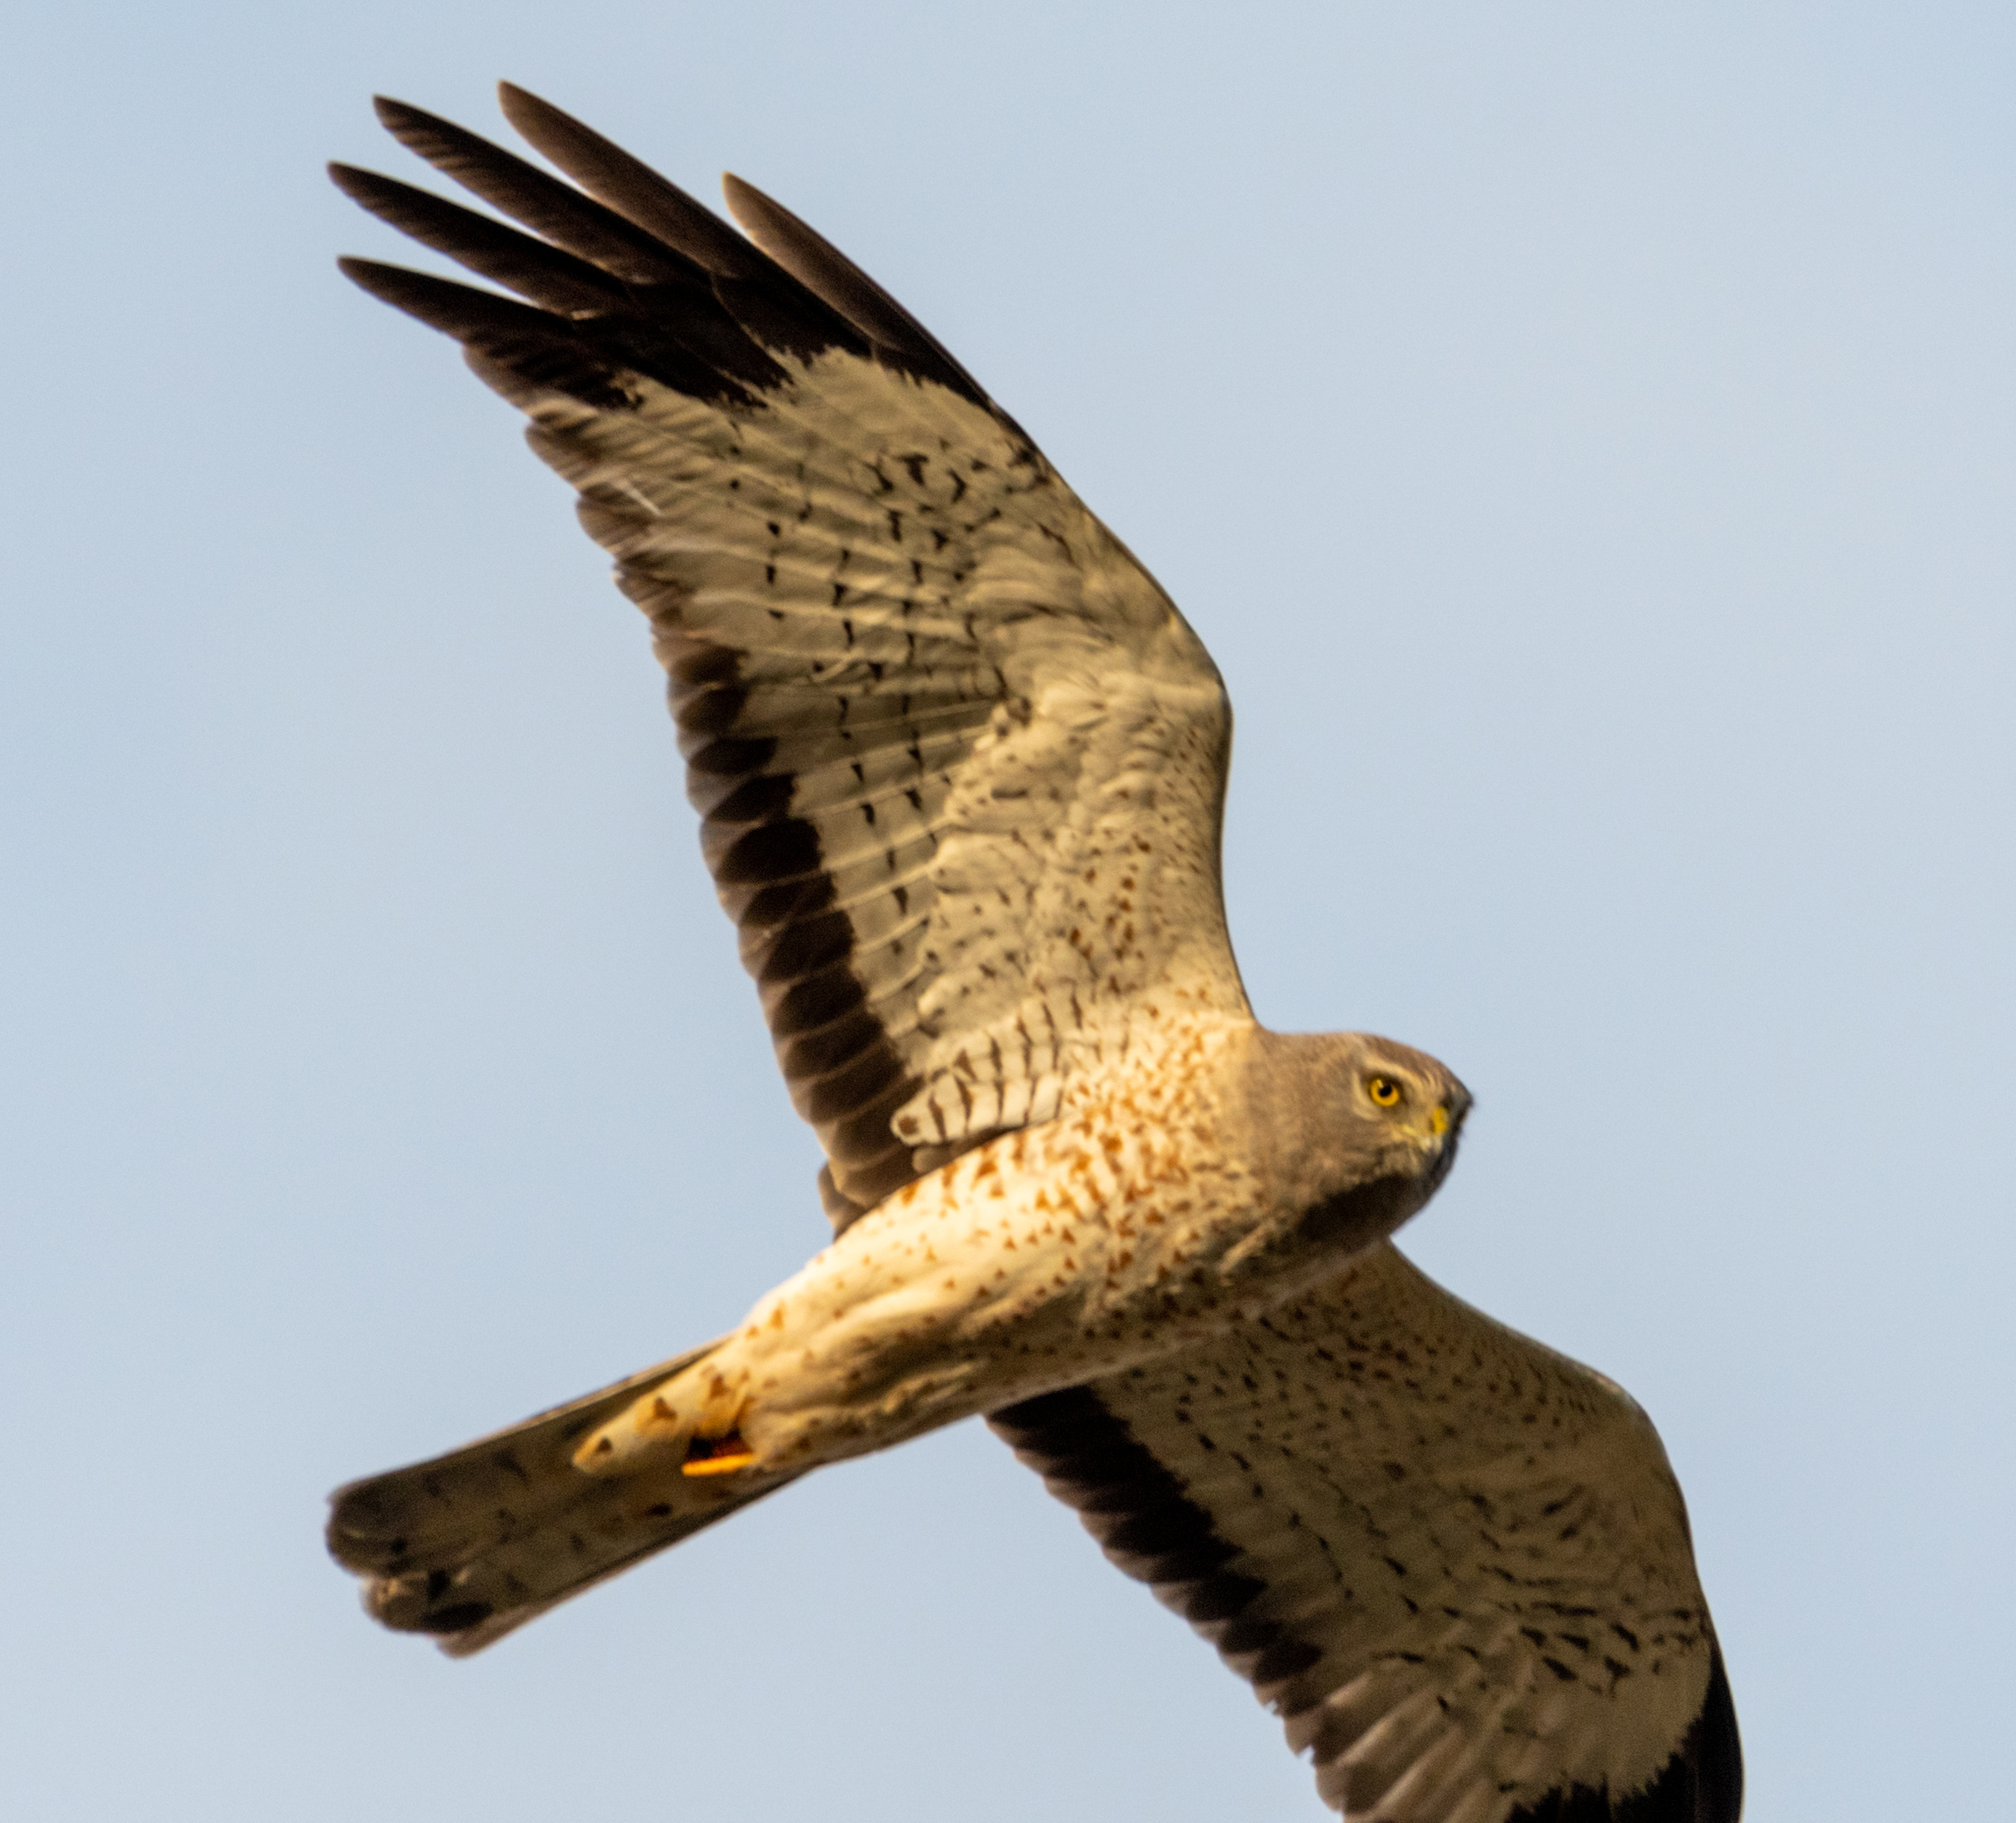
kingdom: Animalia
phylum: Chordata
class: Aves
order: Accipitriformes
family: Accipitridae
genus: Circus
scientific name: Circus cyaneus
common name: Hen harrier
